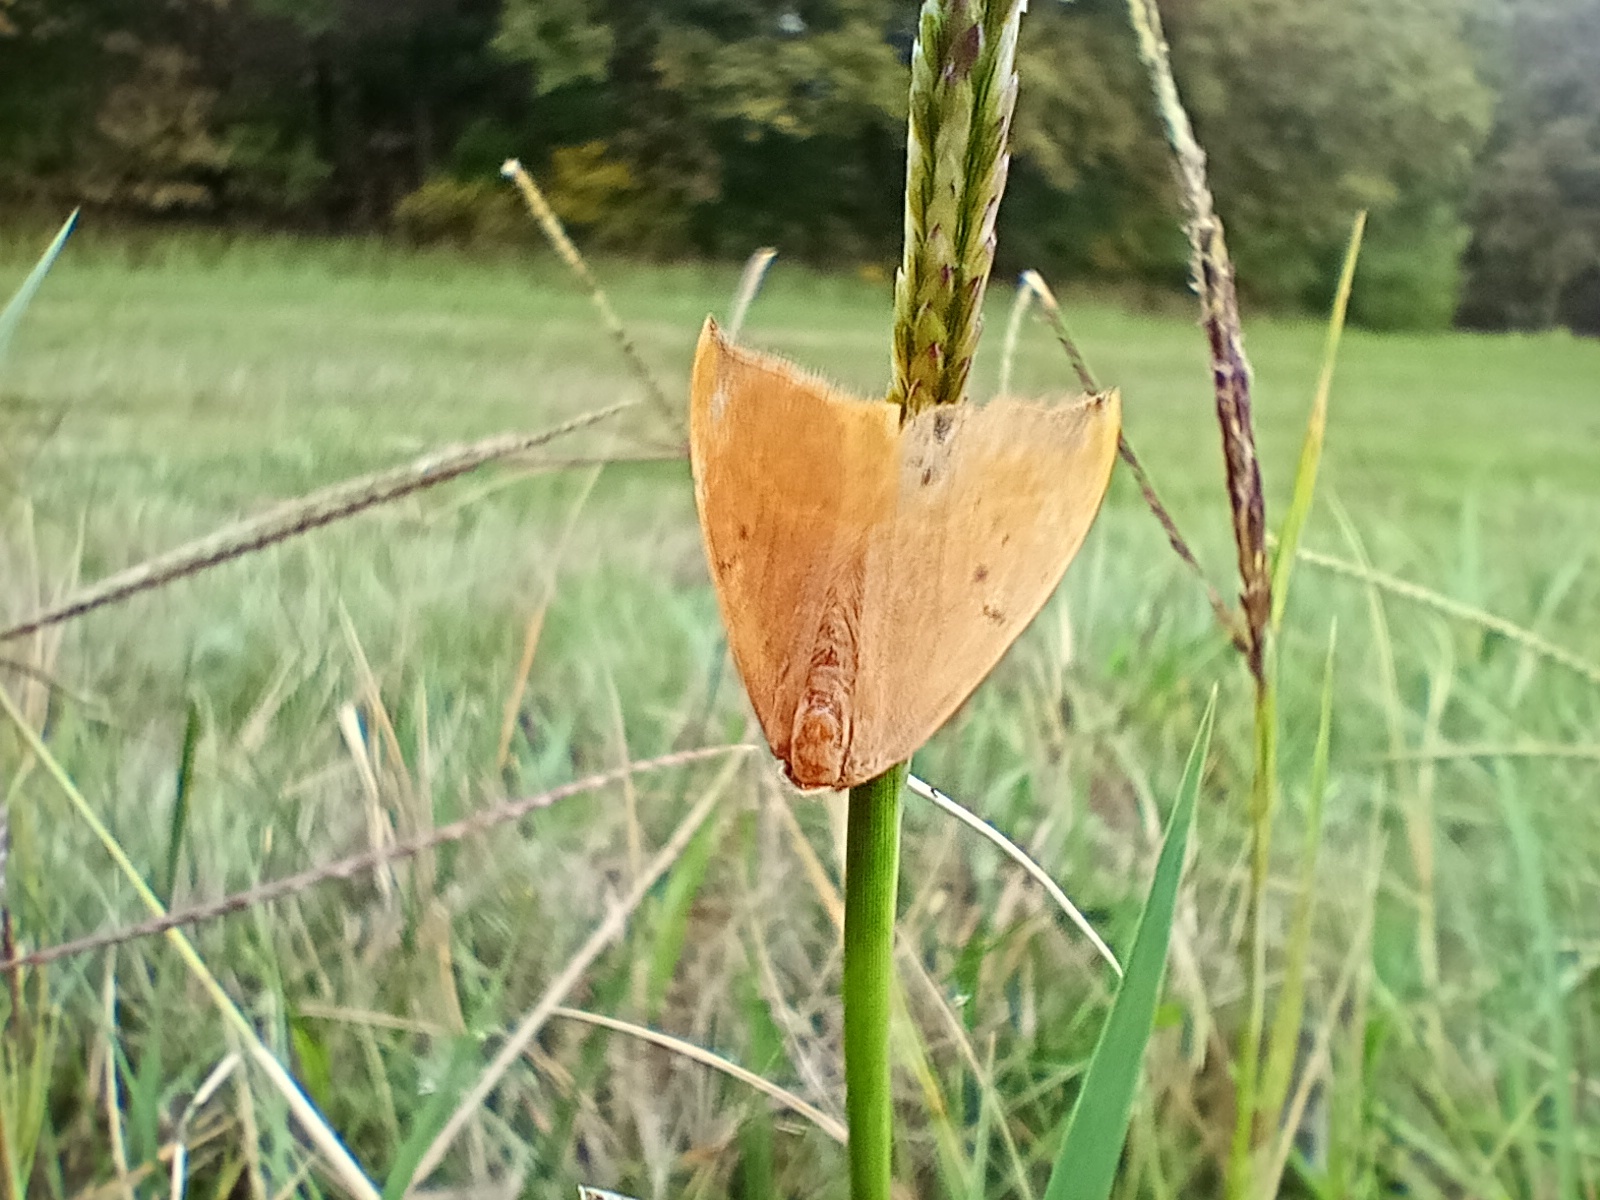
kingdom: Animalia
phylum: Arthropoda
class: Insecta
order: Lepidoptera
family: Drepanidae
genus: Watsonalla
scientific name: Watsonalla binaria
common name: Oak hook-tip
